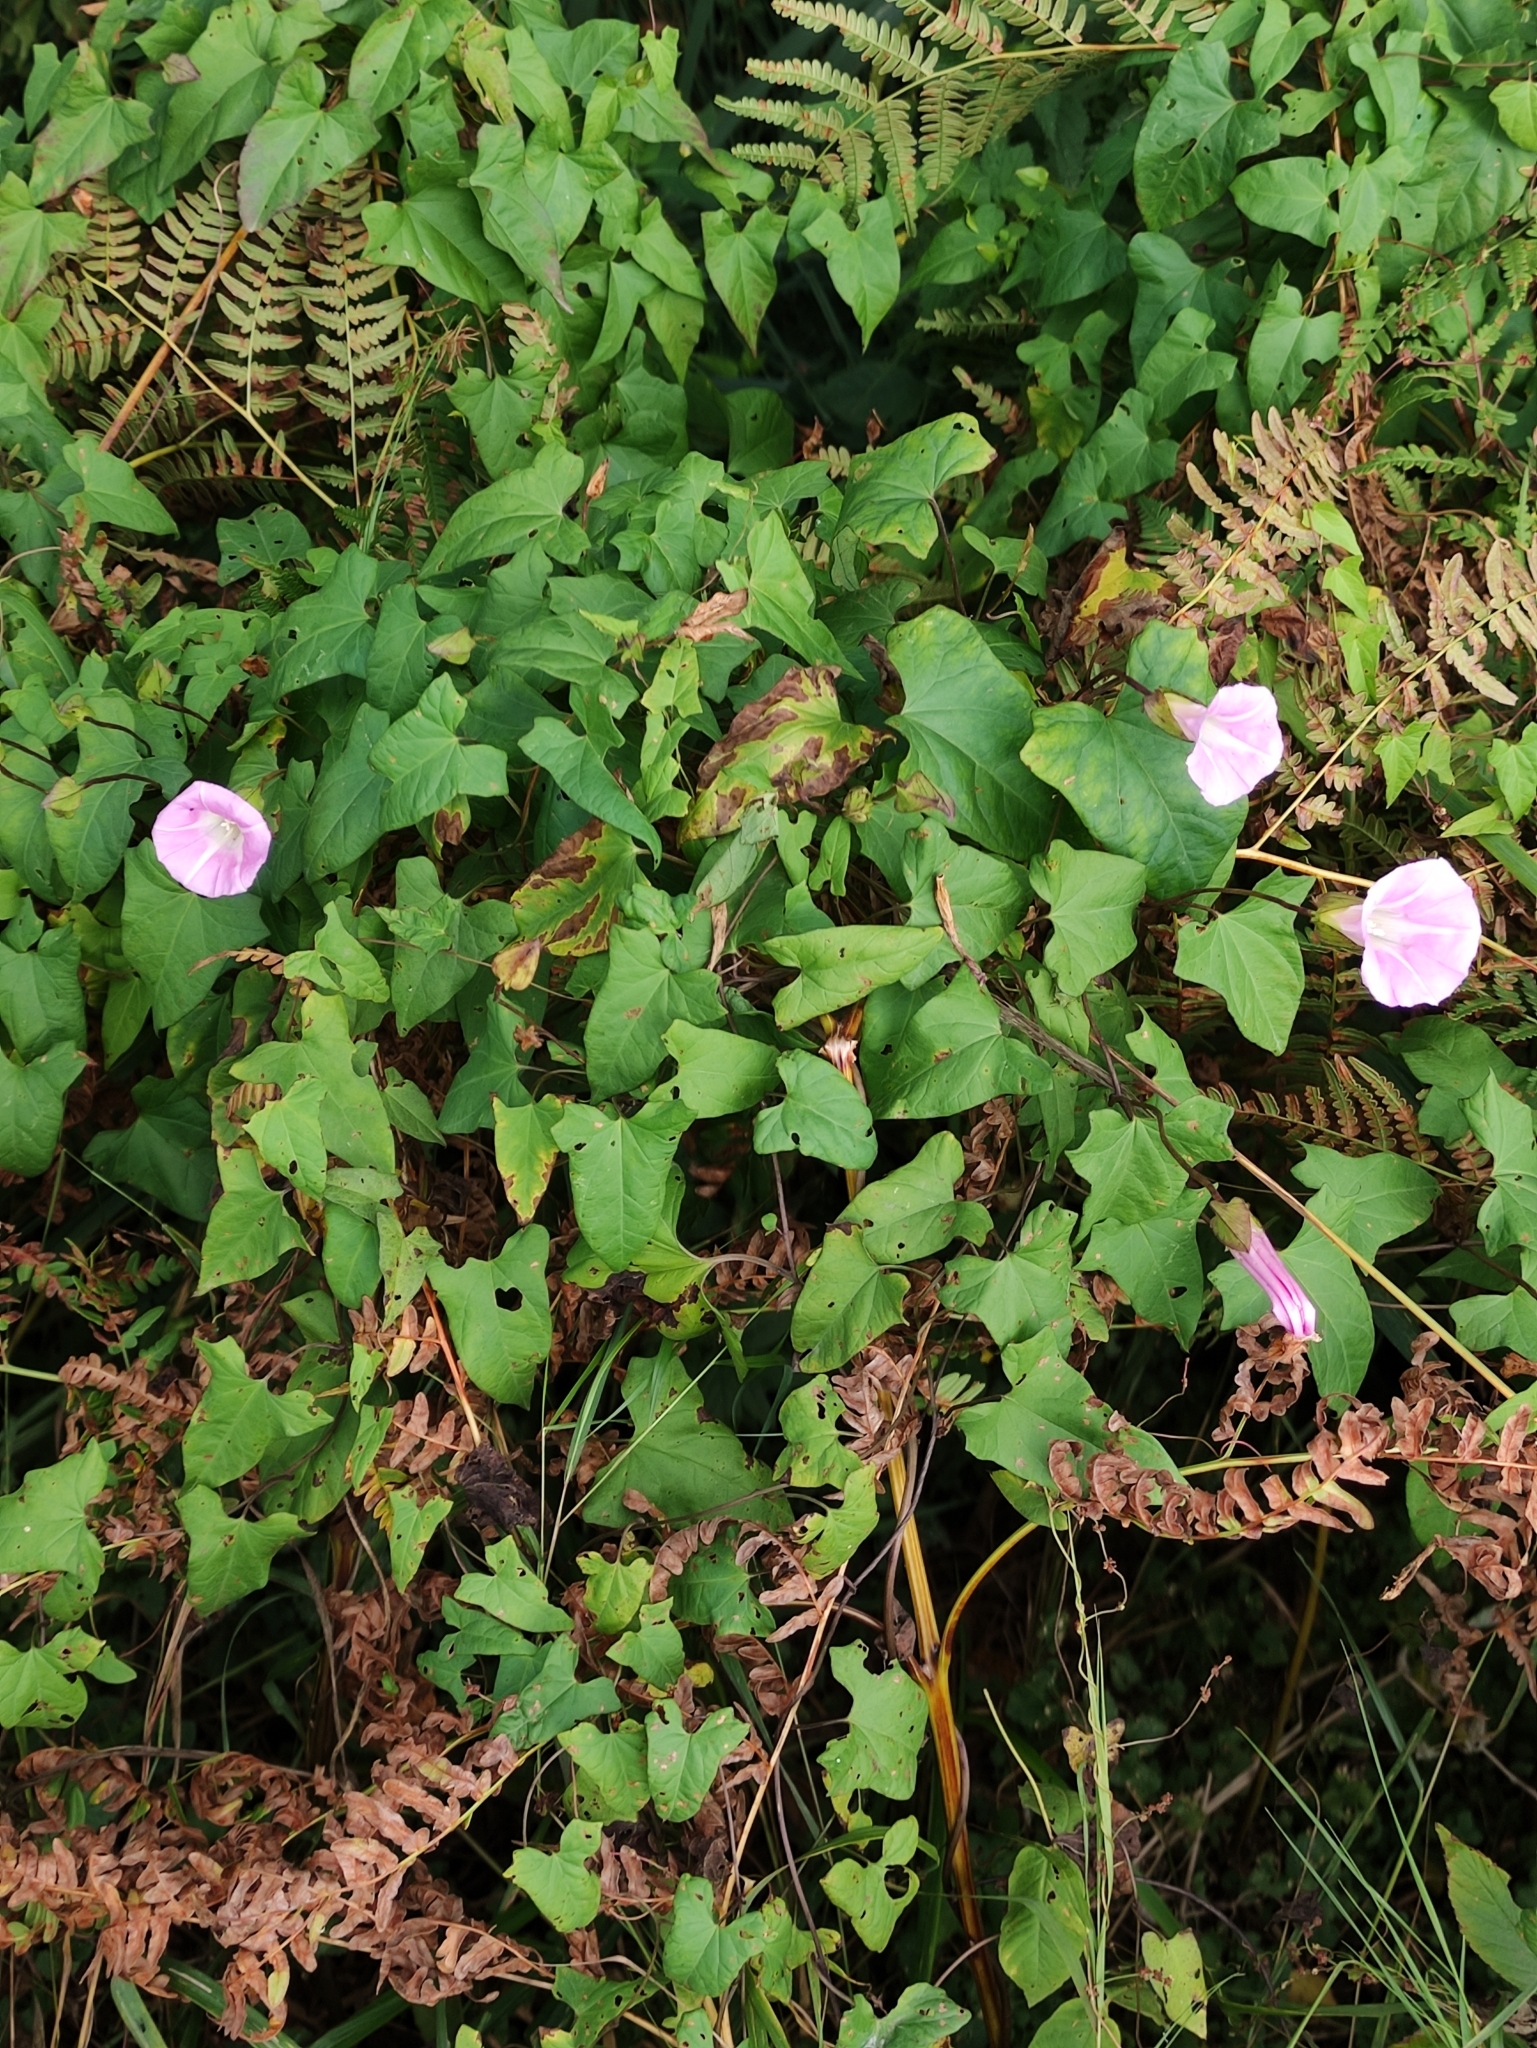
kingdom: Plantae
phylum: Tracheophyta
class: Magnoliopsida
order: Solanales
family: Convolvulaceae
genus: Calystegia
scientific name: Calystegia sepium
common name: Hedge bindweed
